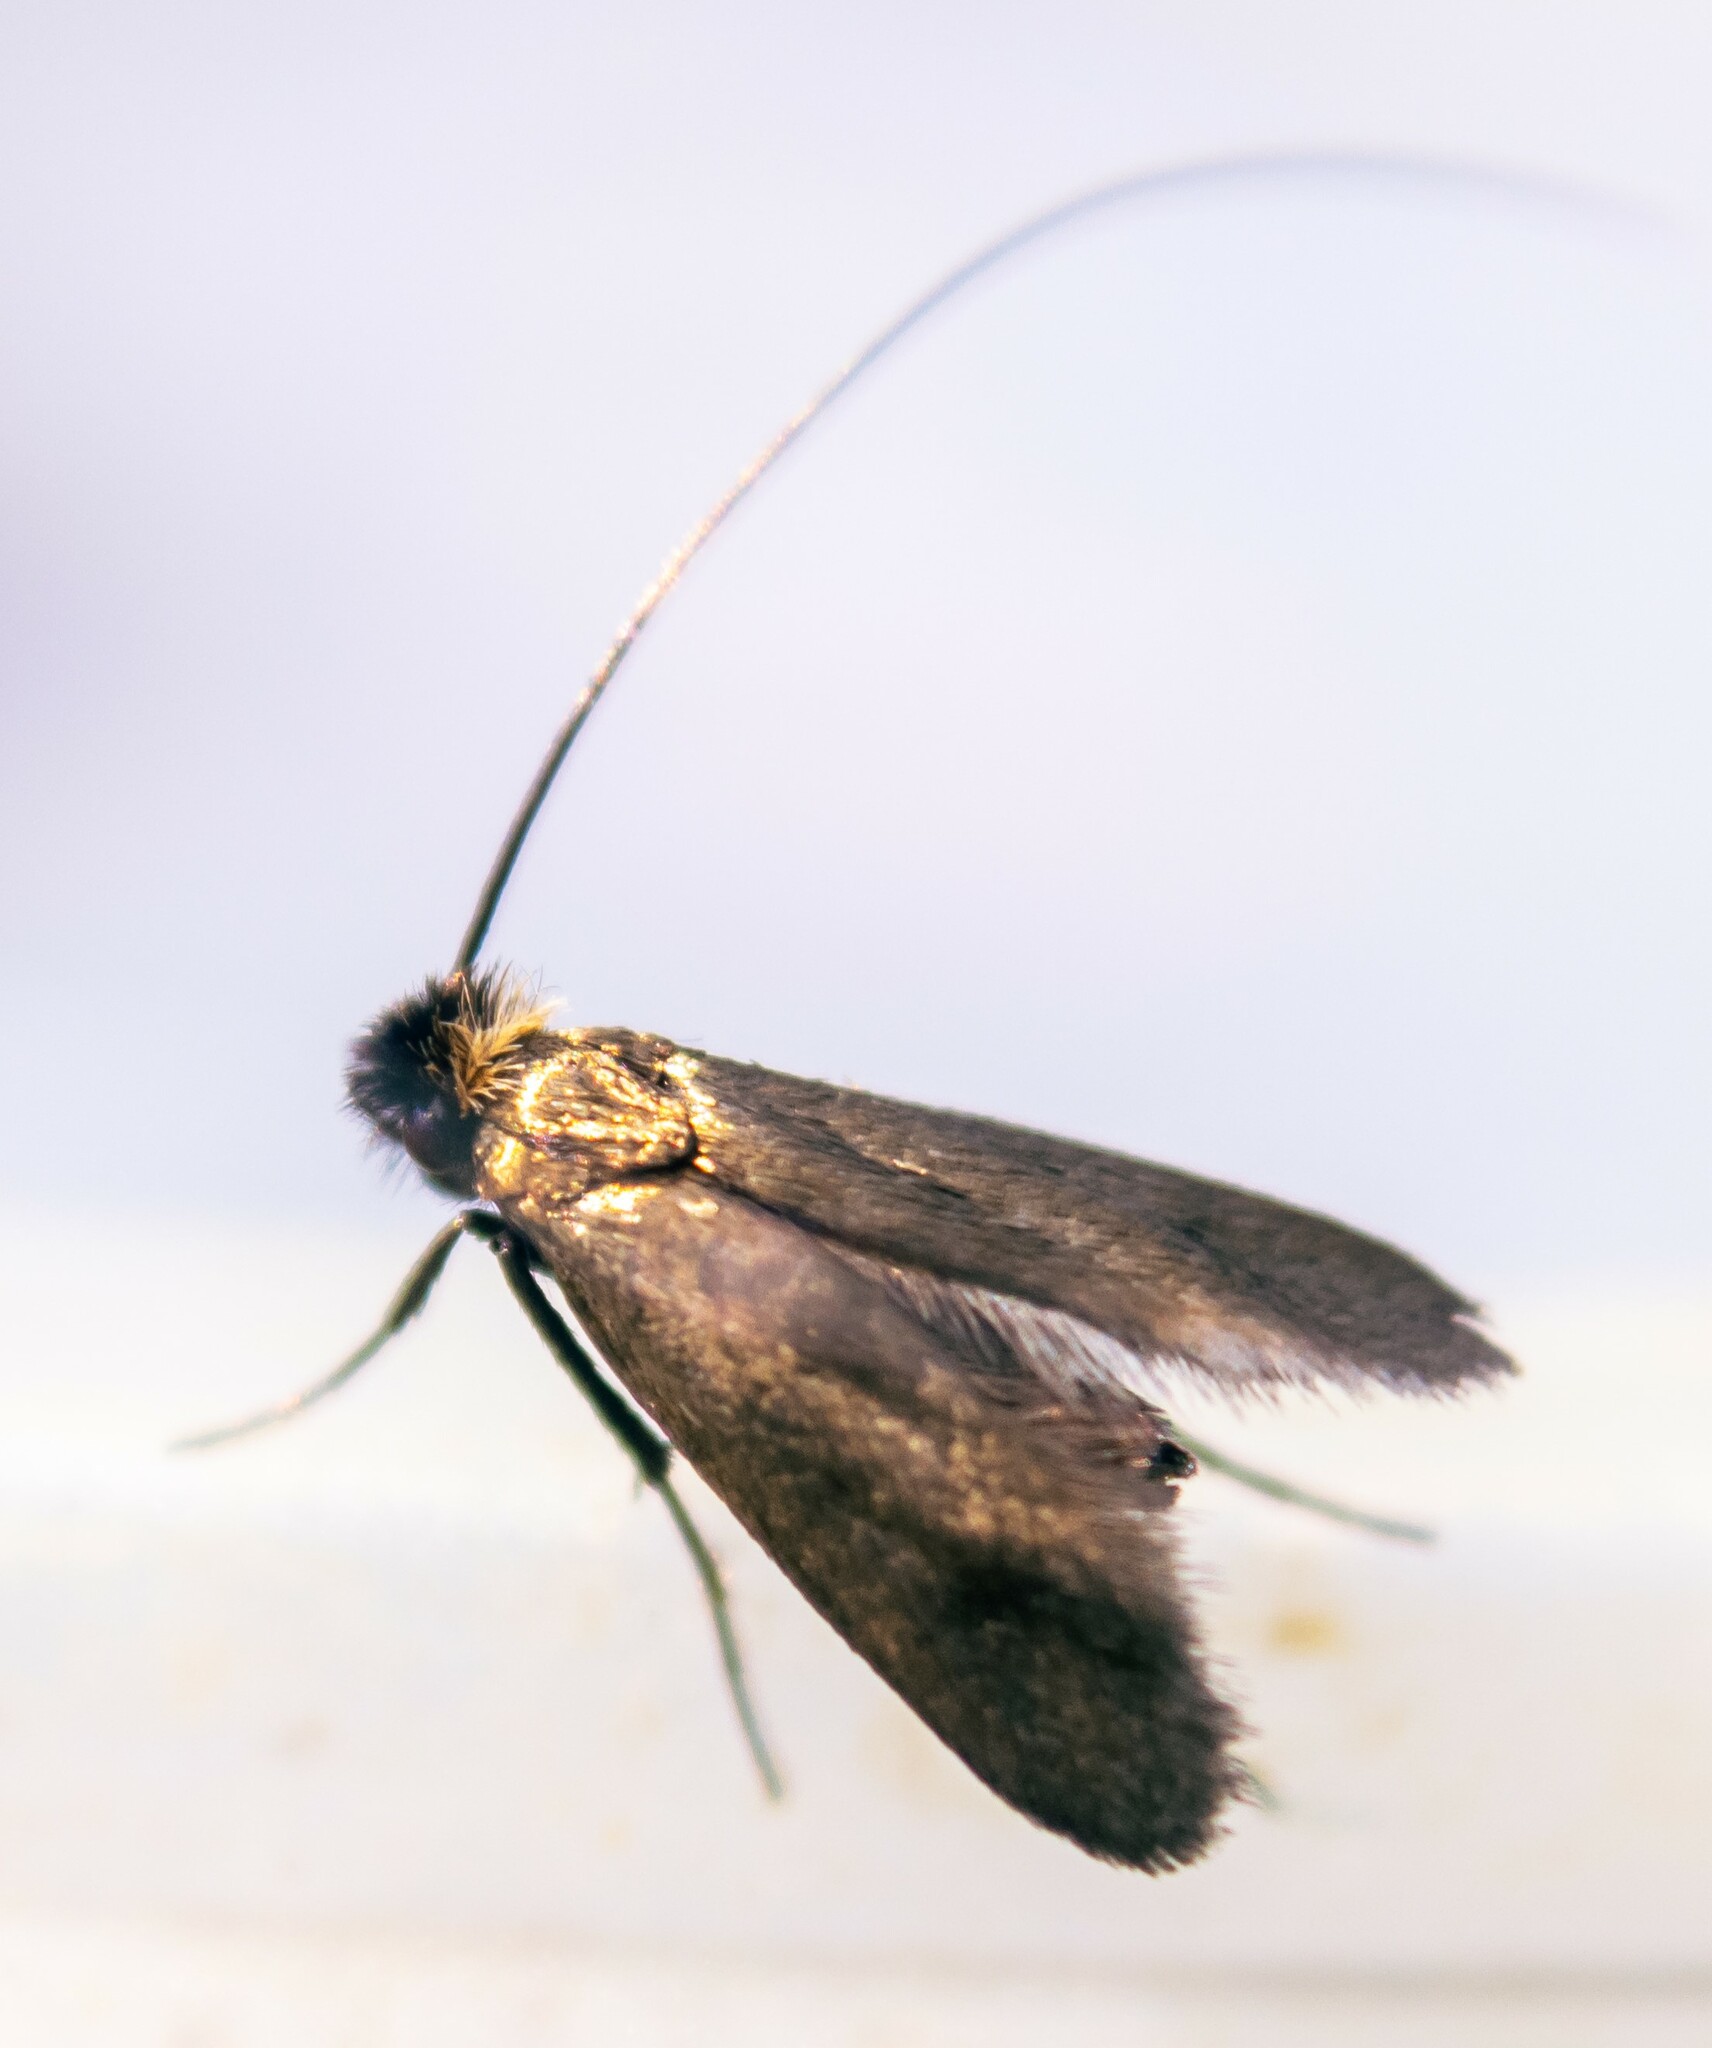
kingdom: Animalia
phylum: Arthropoda
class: Insecta
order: Lepidoptera
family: Adelidae
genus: Cauchas
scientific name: Cauchas rufimitrella
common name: Meadow long-horn
